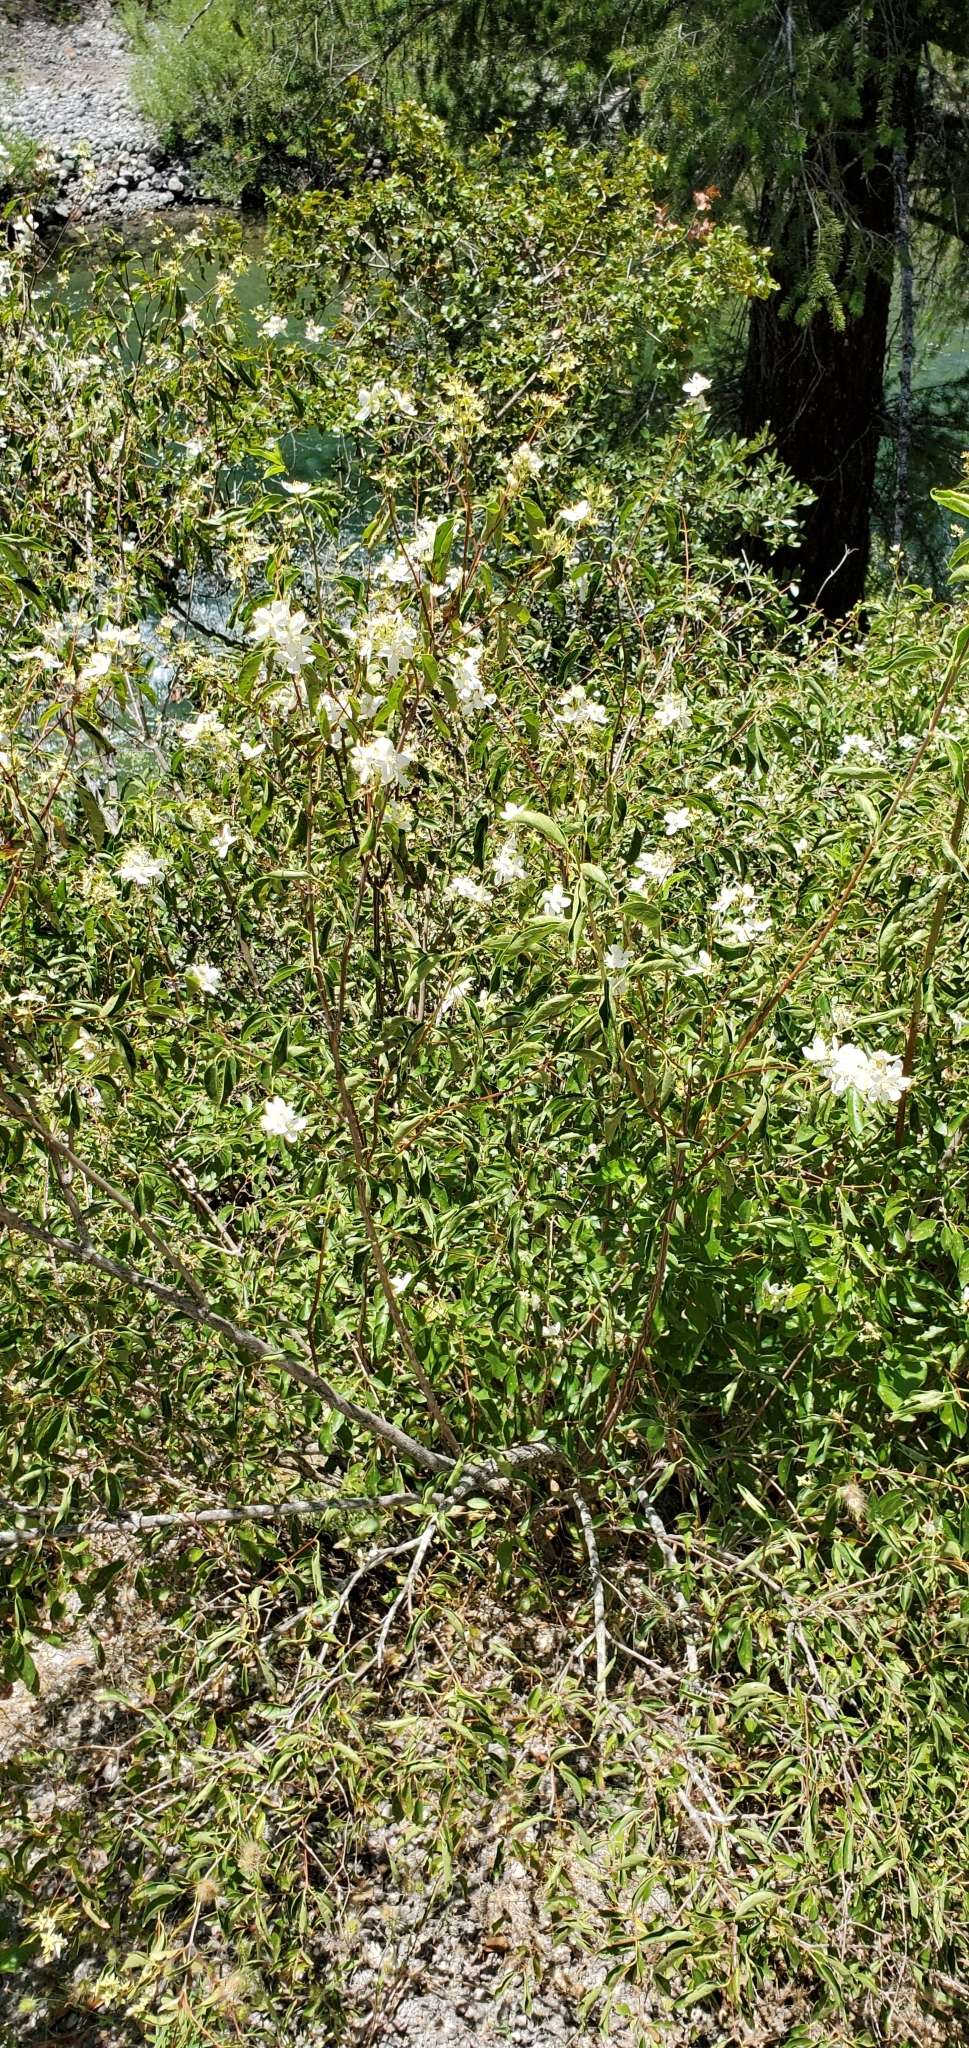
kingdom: Plantae
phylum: Tracheophyta
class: Magnoliopsida
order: Cornales
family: Hydrangeaceae
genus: Philadelphus
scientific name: Philadelphus lewisii
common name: Lewis's mock orange
